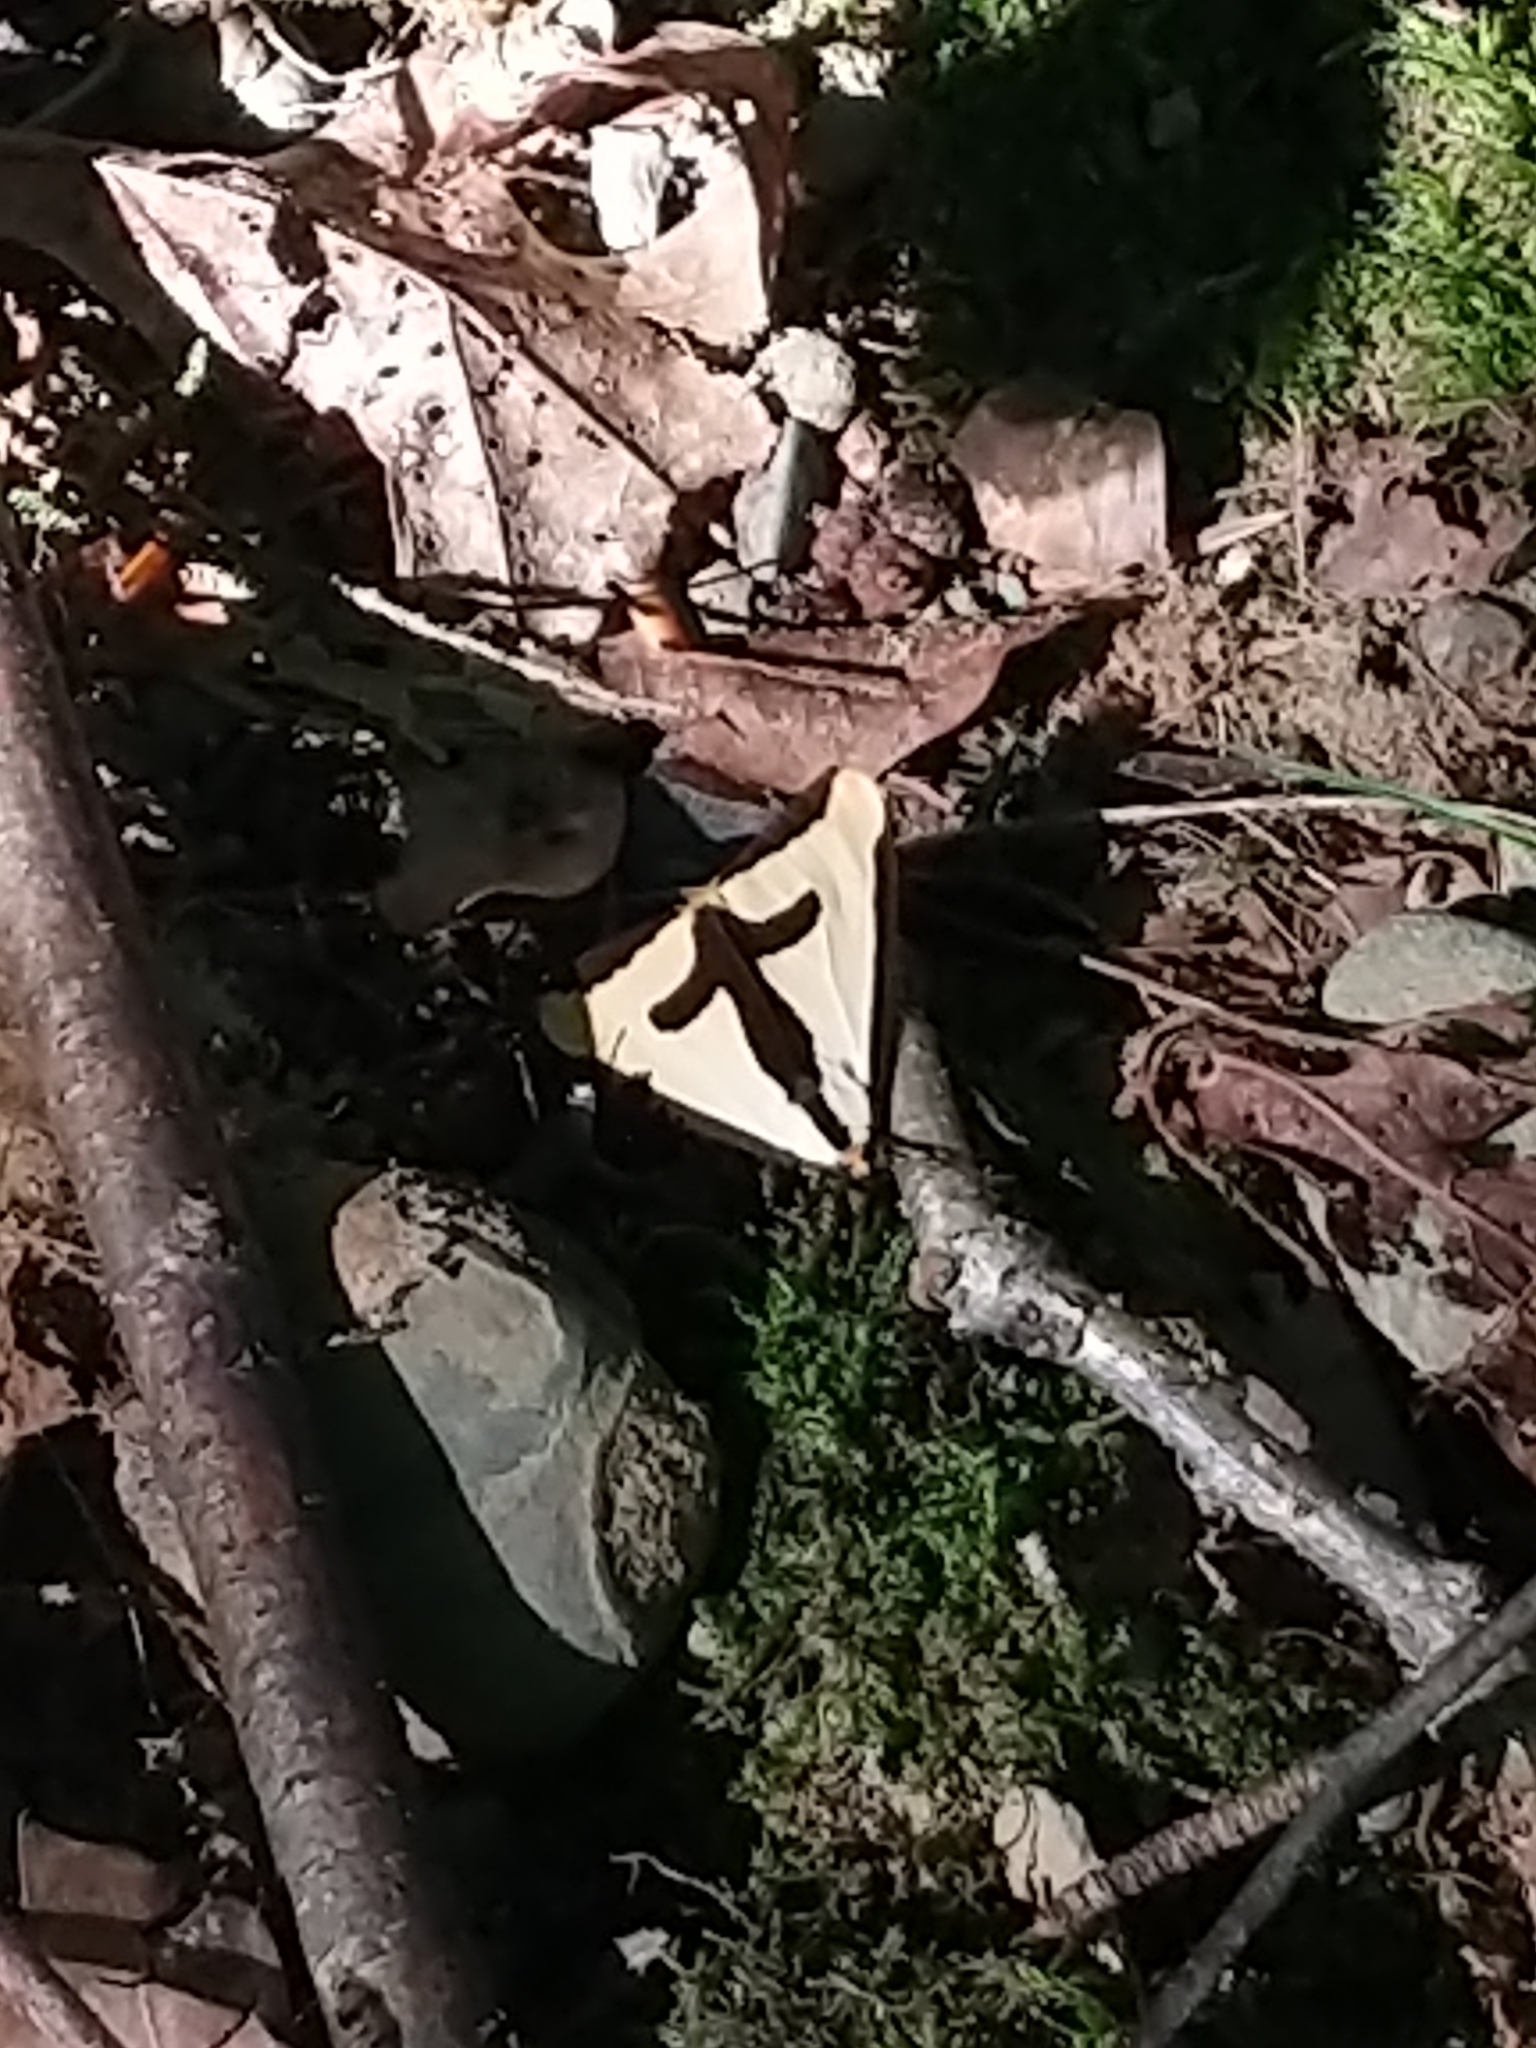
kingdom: Animalia
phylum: Arthropoda
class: Insecta
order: Lepidoptera
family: Erebidae
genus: Haploa
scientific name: Haploa clymene
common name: Clymene moth
